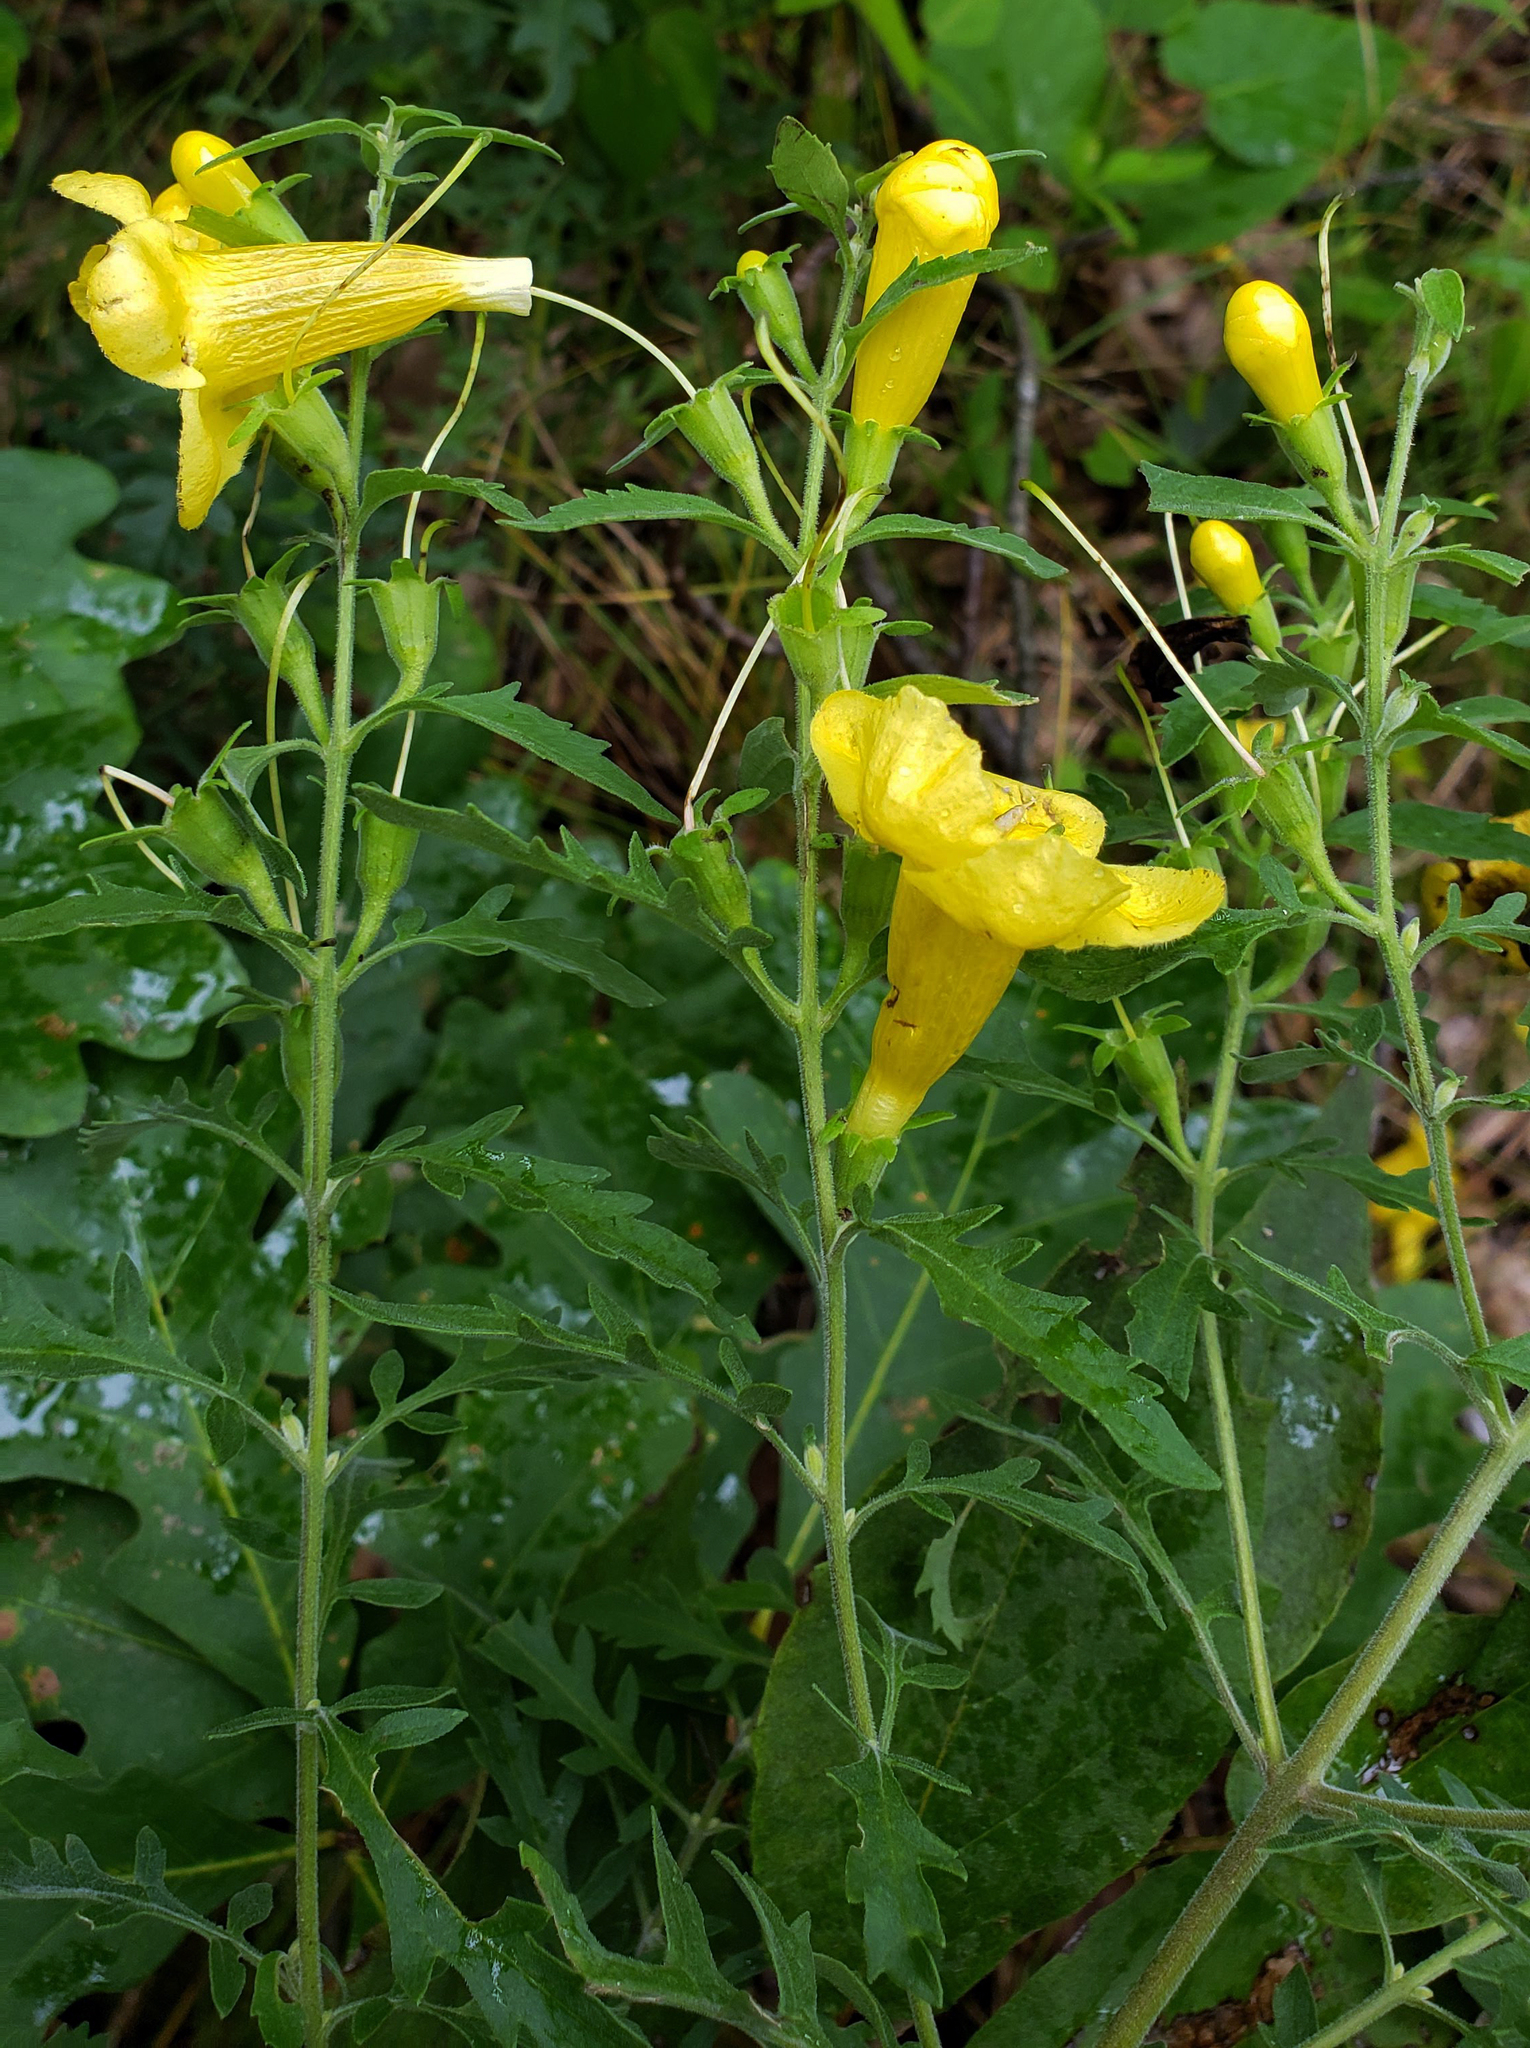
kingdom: Plantae
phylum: Tracheophyta
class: Magnoliopsida
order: Lamiales
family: Orobanchaceae
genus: Aureolaria
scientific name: Aureolaria grandiflora
